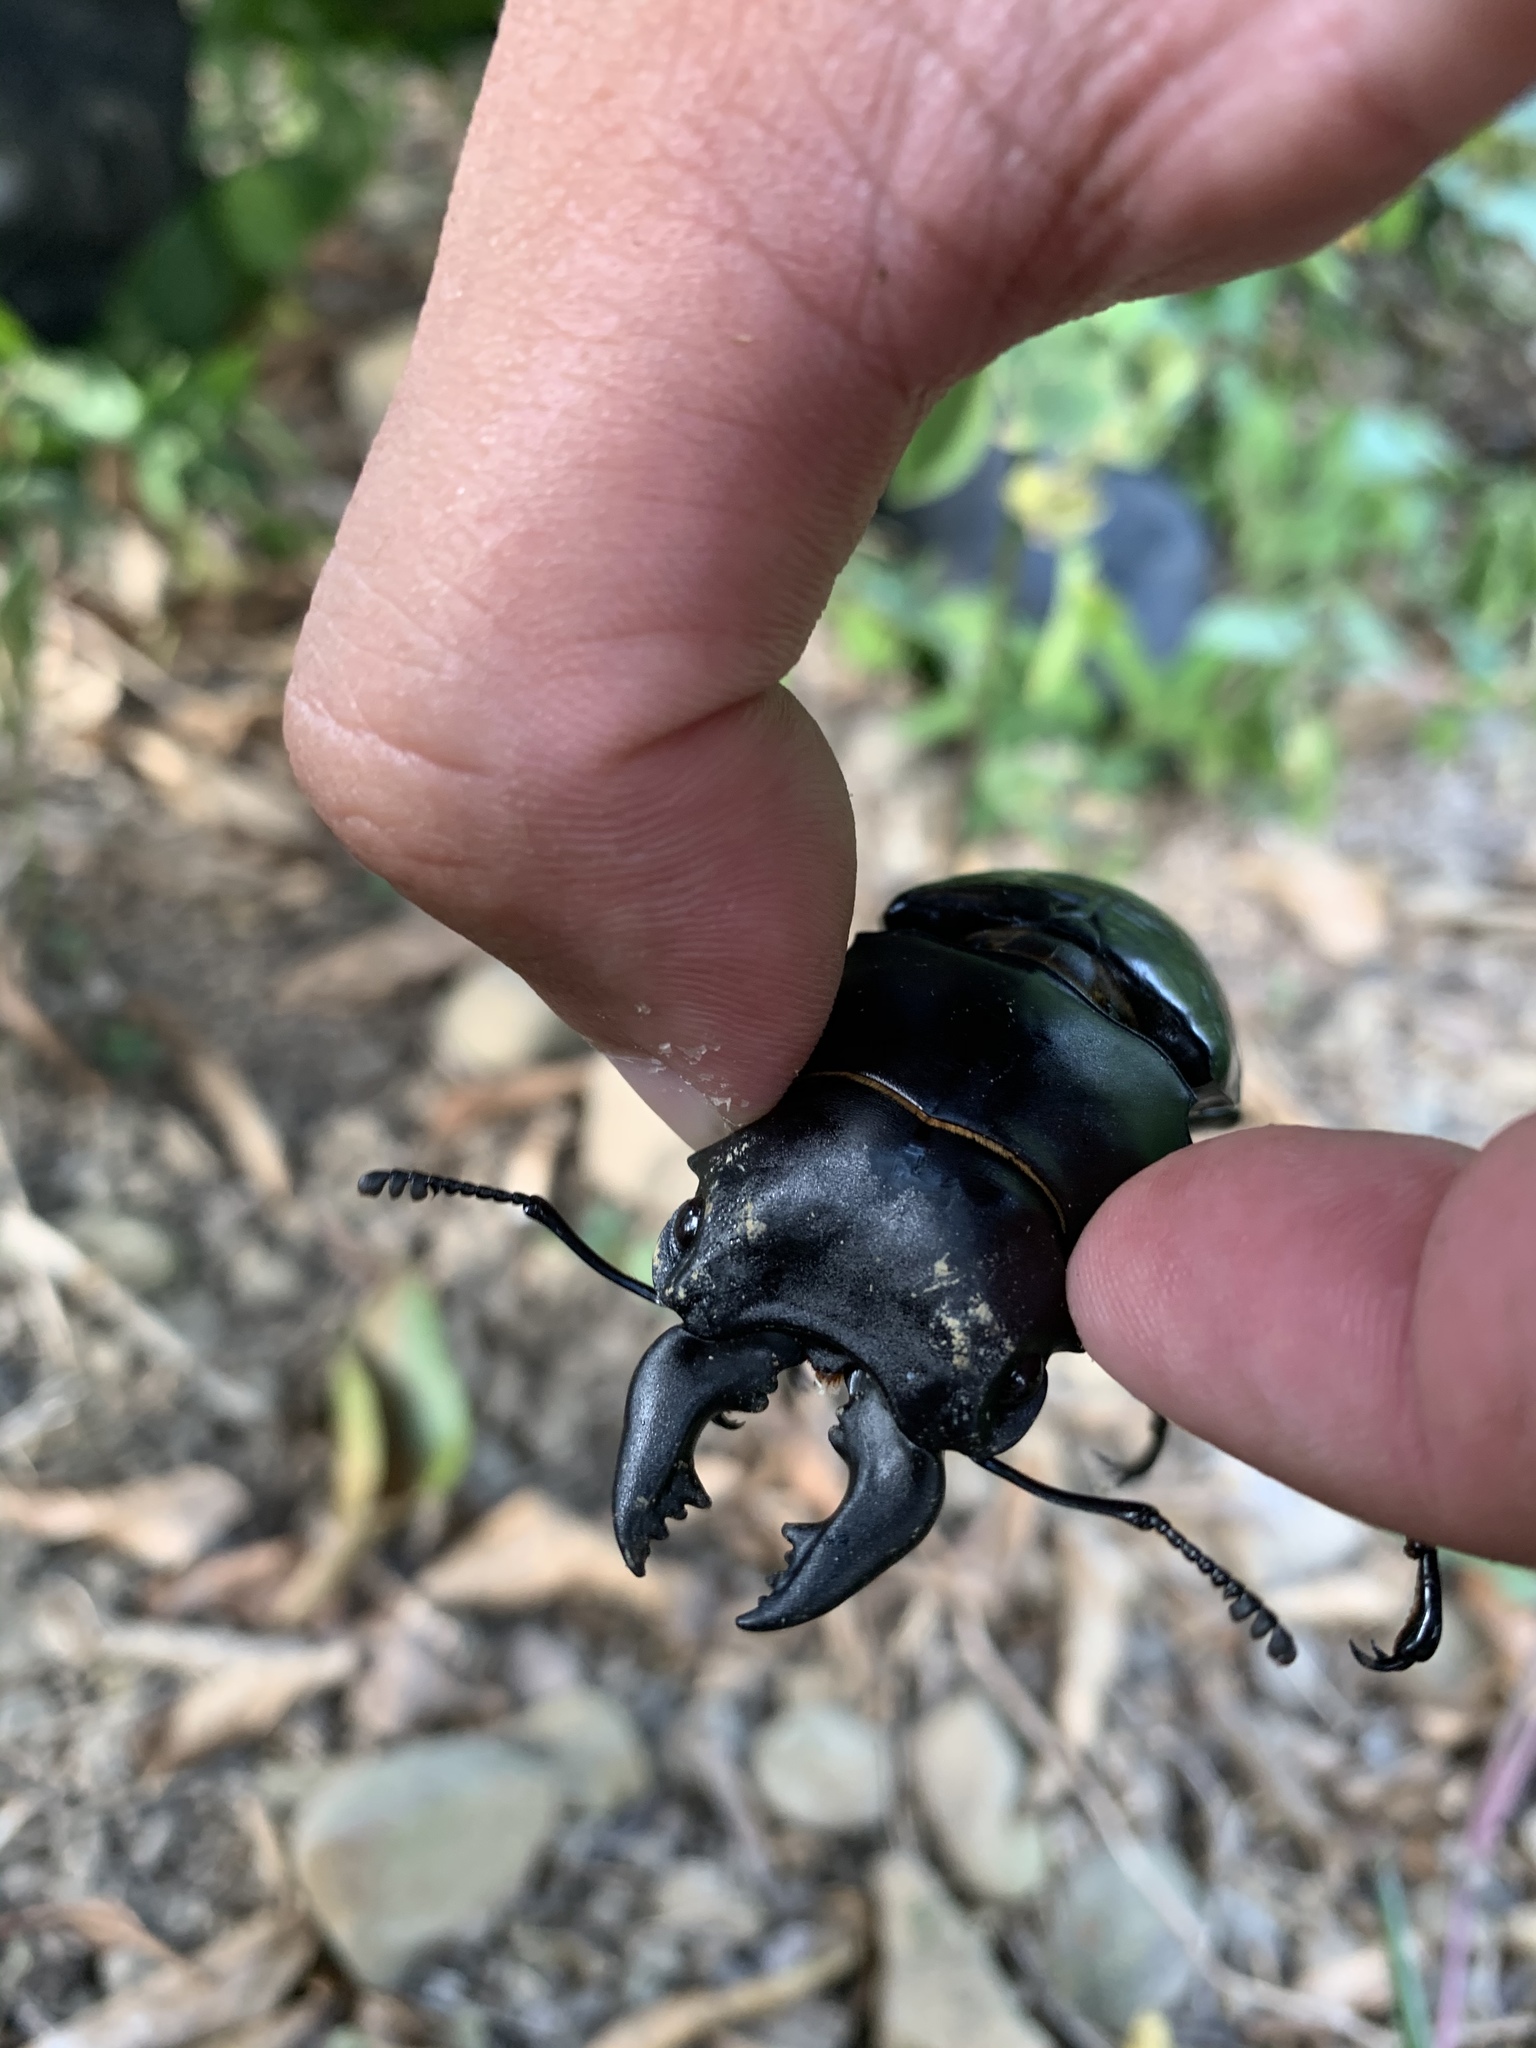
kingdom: Animalia
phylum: Arthropoda
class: Insecta
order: Coleoptera
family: Lucanidae
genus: Odontolabis
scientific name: Odontolabis siva
